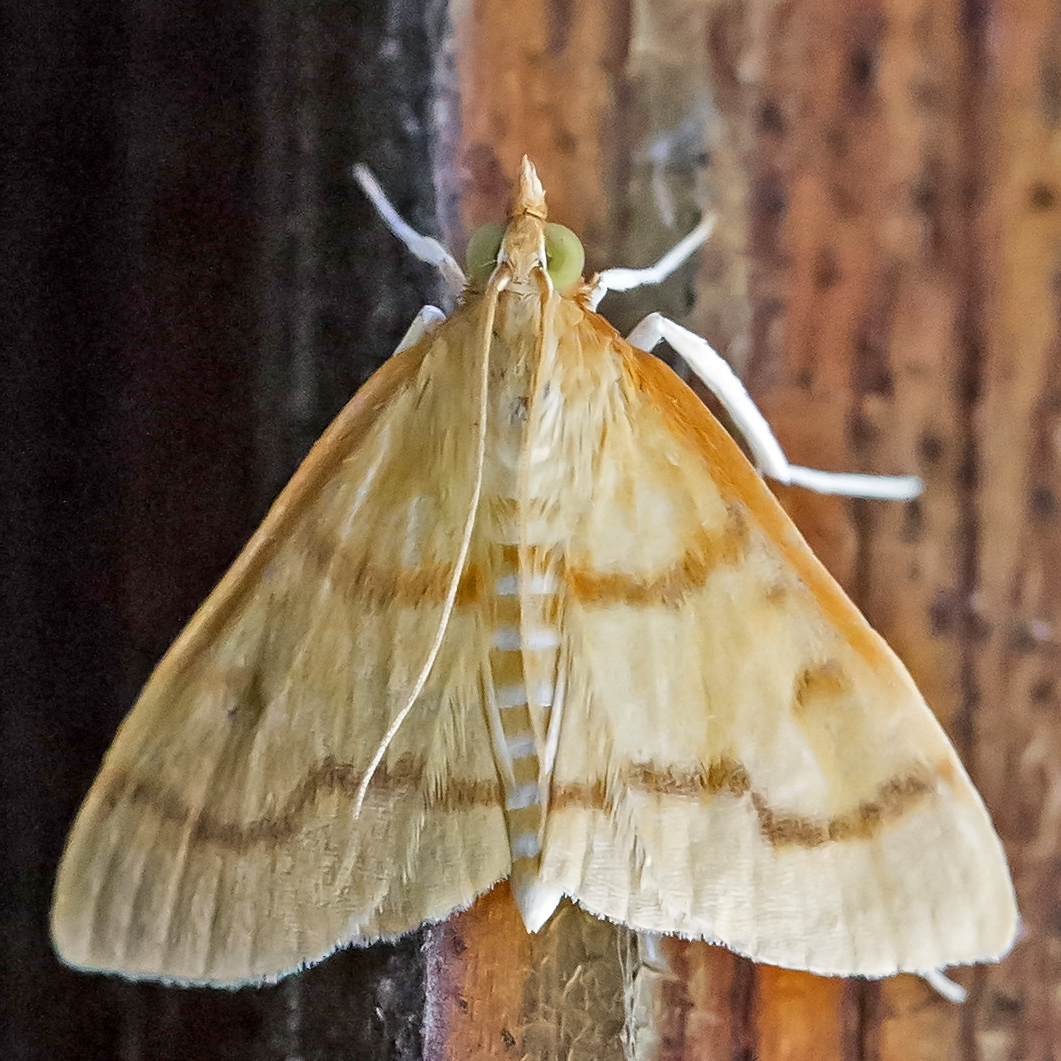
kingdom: Animalia
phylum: Arthropoda
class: Insecta
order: Lepidoptera
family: Crambidae
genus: Helvibotys
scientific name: Helvibotys helvialis
